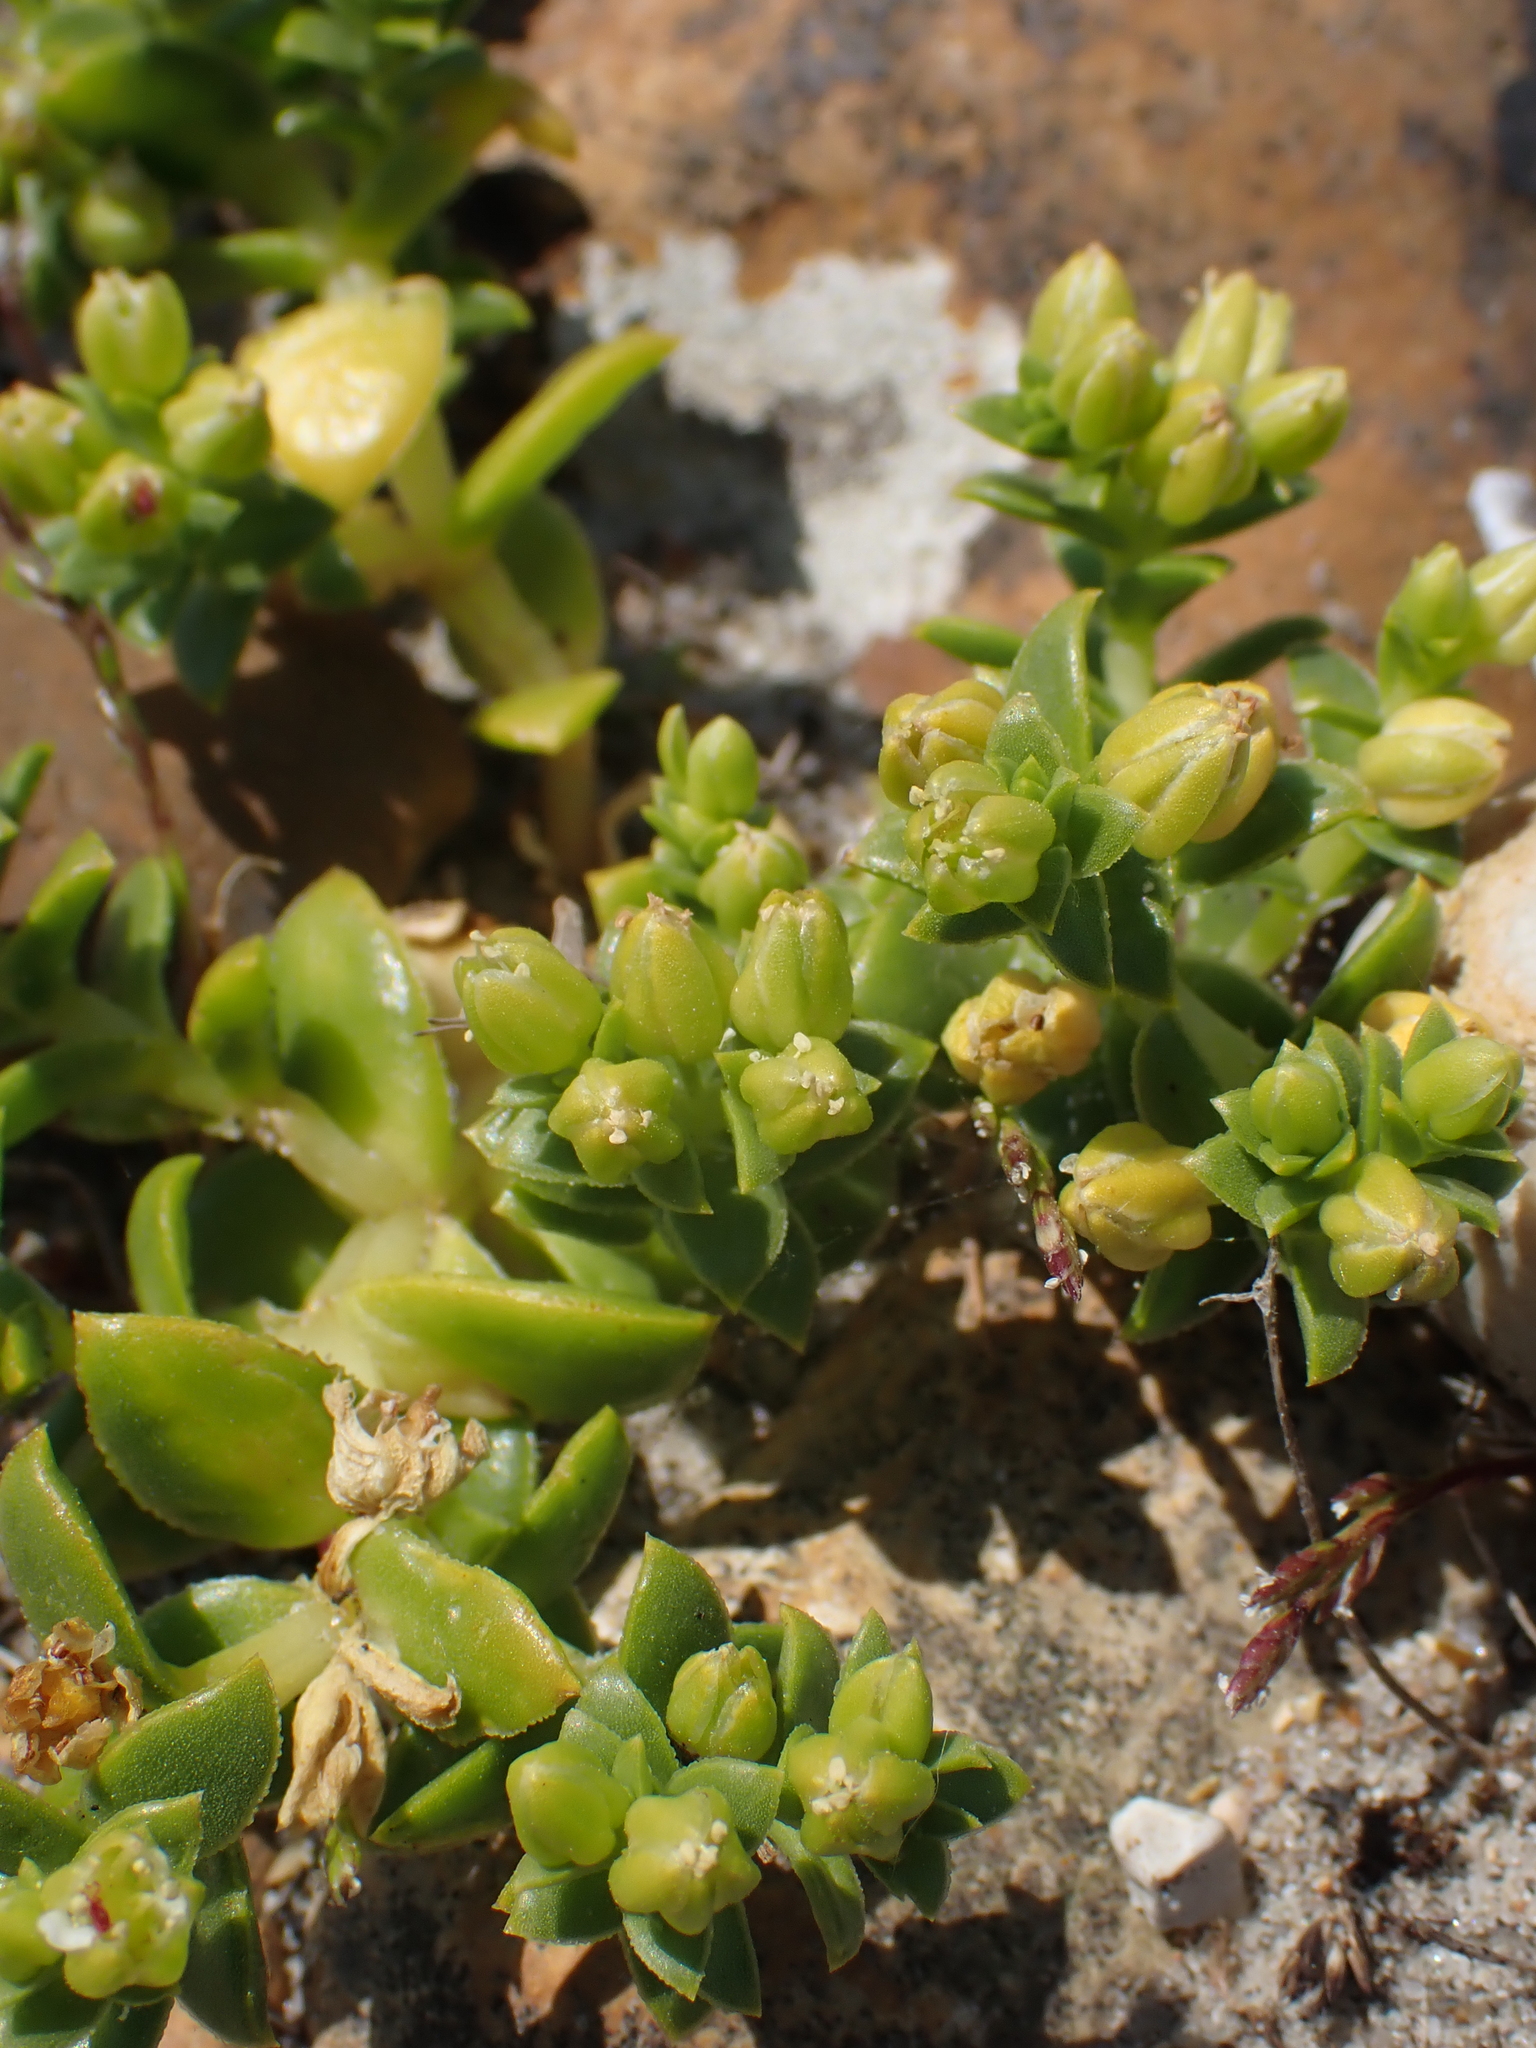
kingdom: Plantae
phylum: Tracheophyta
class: Magnoliopsida
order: Caryophyllales
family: Caryophyllaceae
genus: Honckenya
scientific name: Honckenya peploides
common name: Sea sandwort
